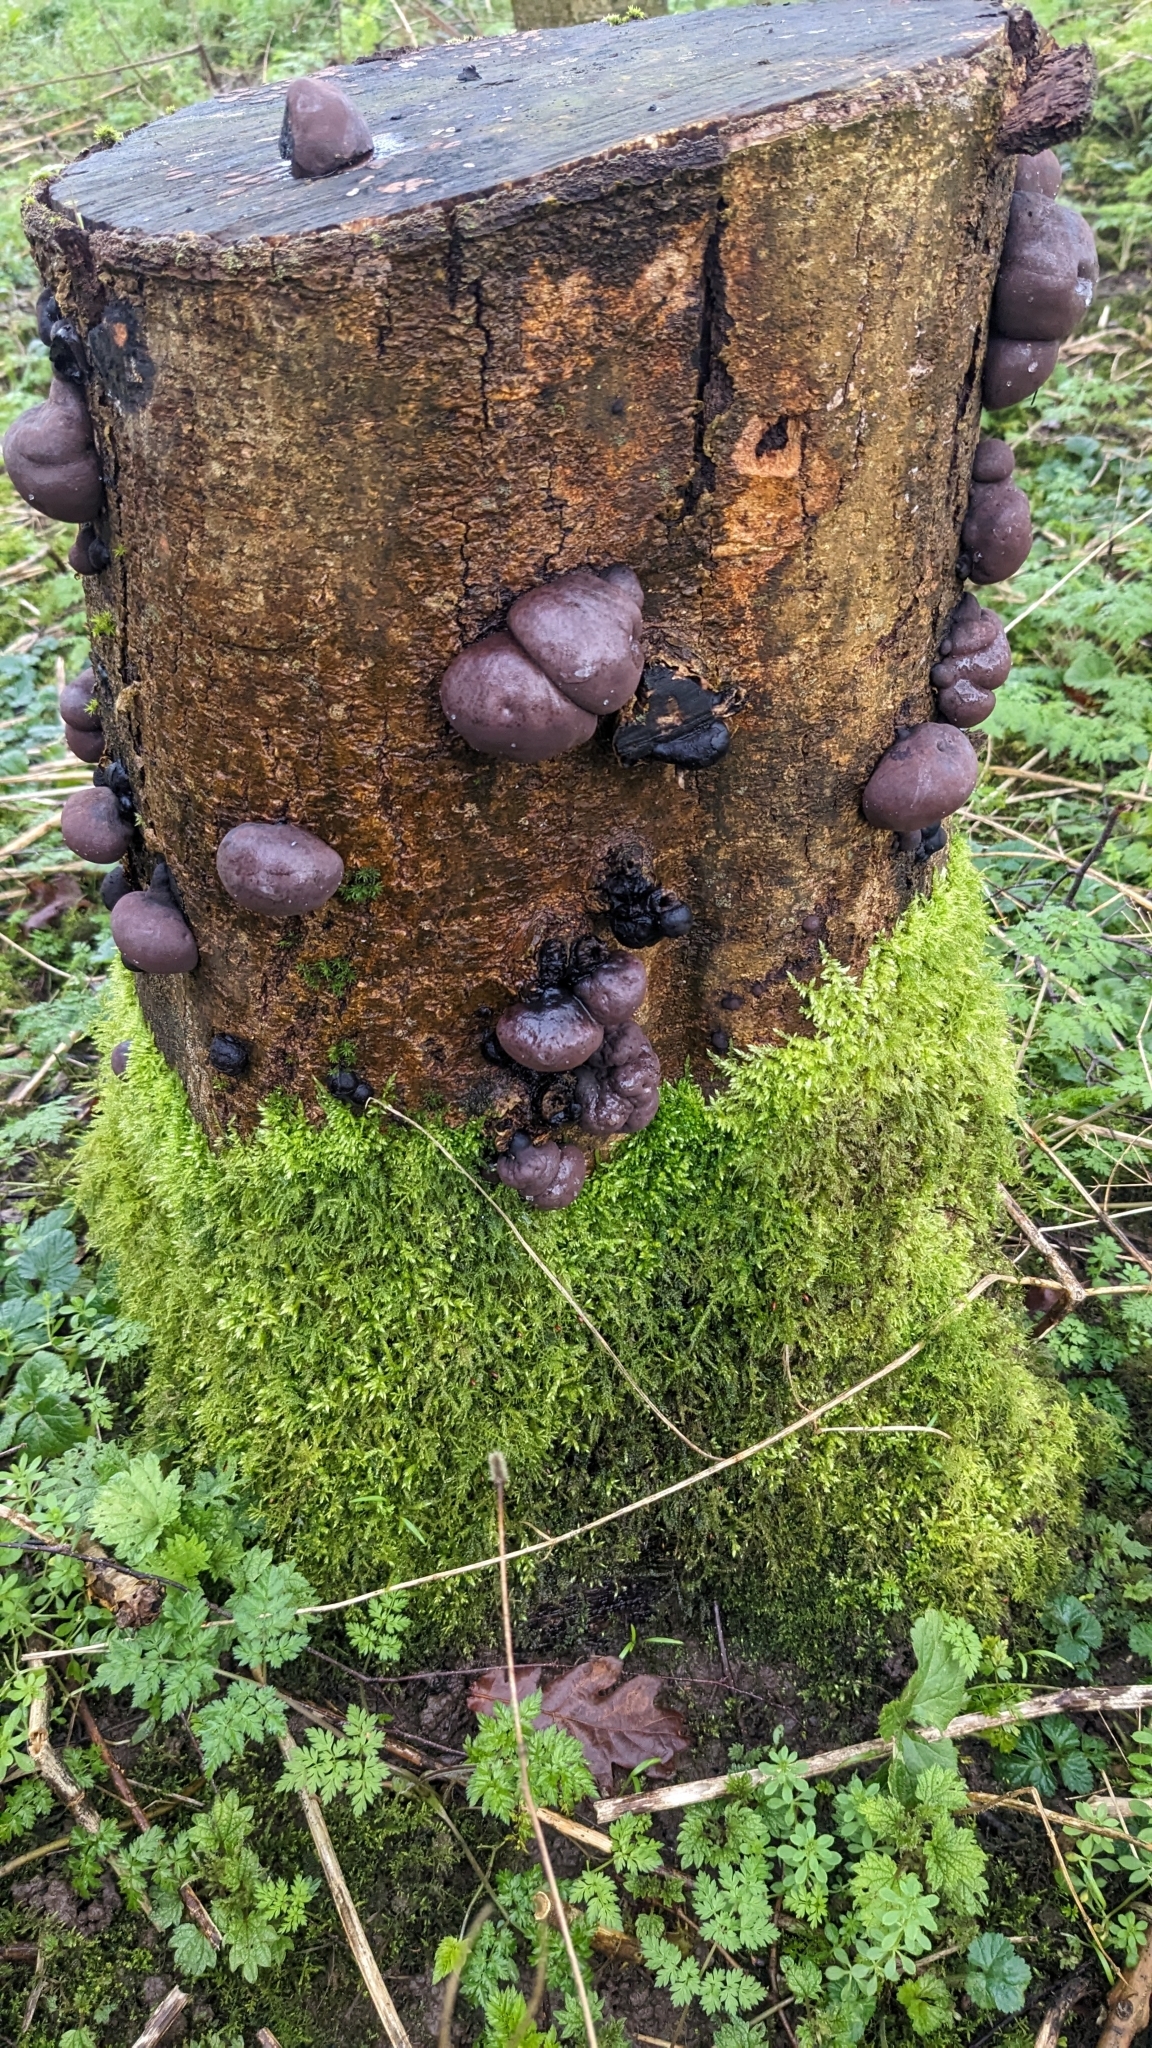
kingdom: Fungi
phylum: Ascomycota
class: Sordariomycetes
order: Xylariales
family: Hypoxylaceae
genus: Daldinia
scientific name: Daldinia concentrica
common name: Cramp balls
